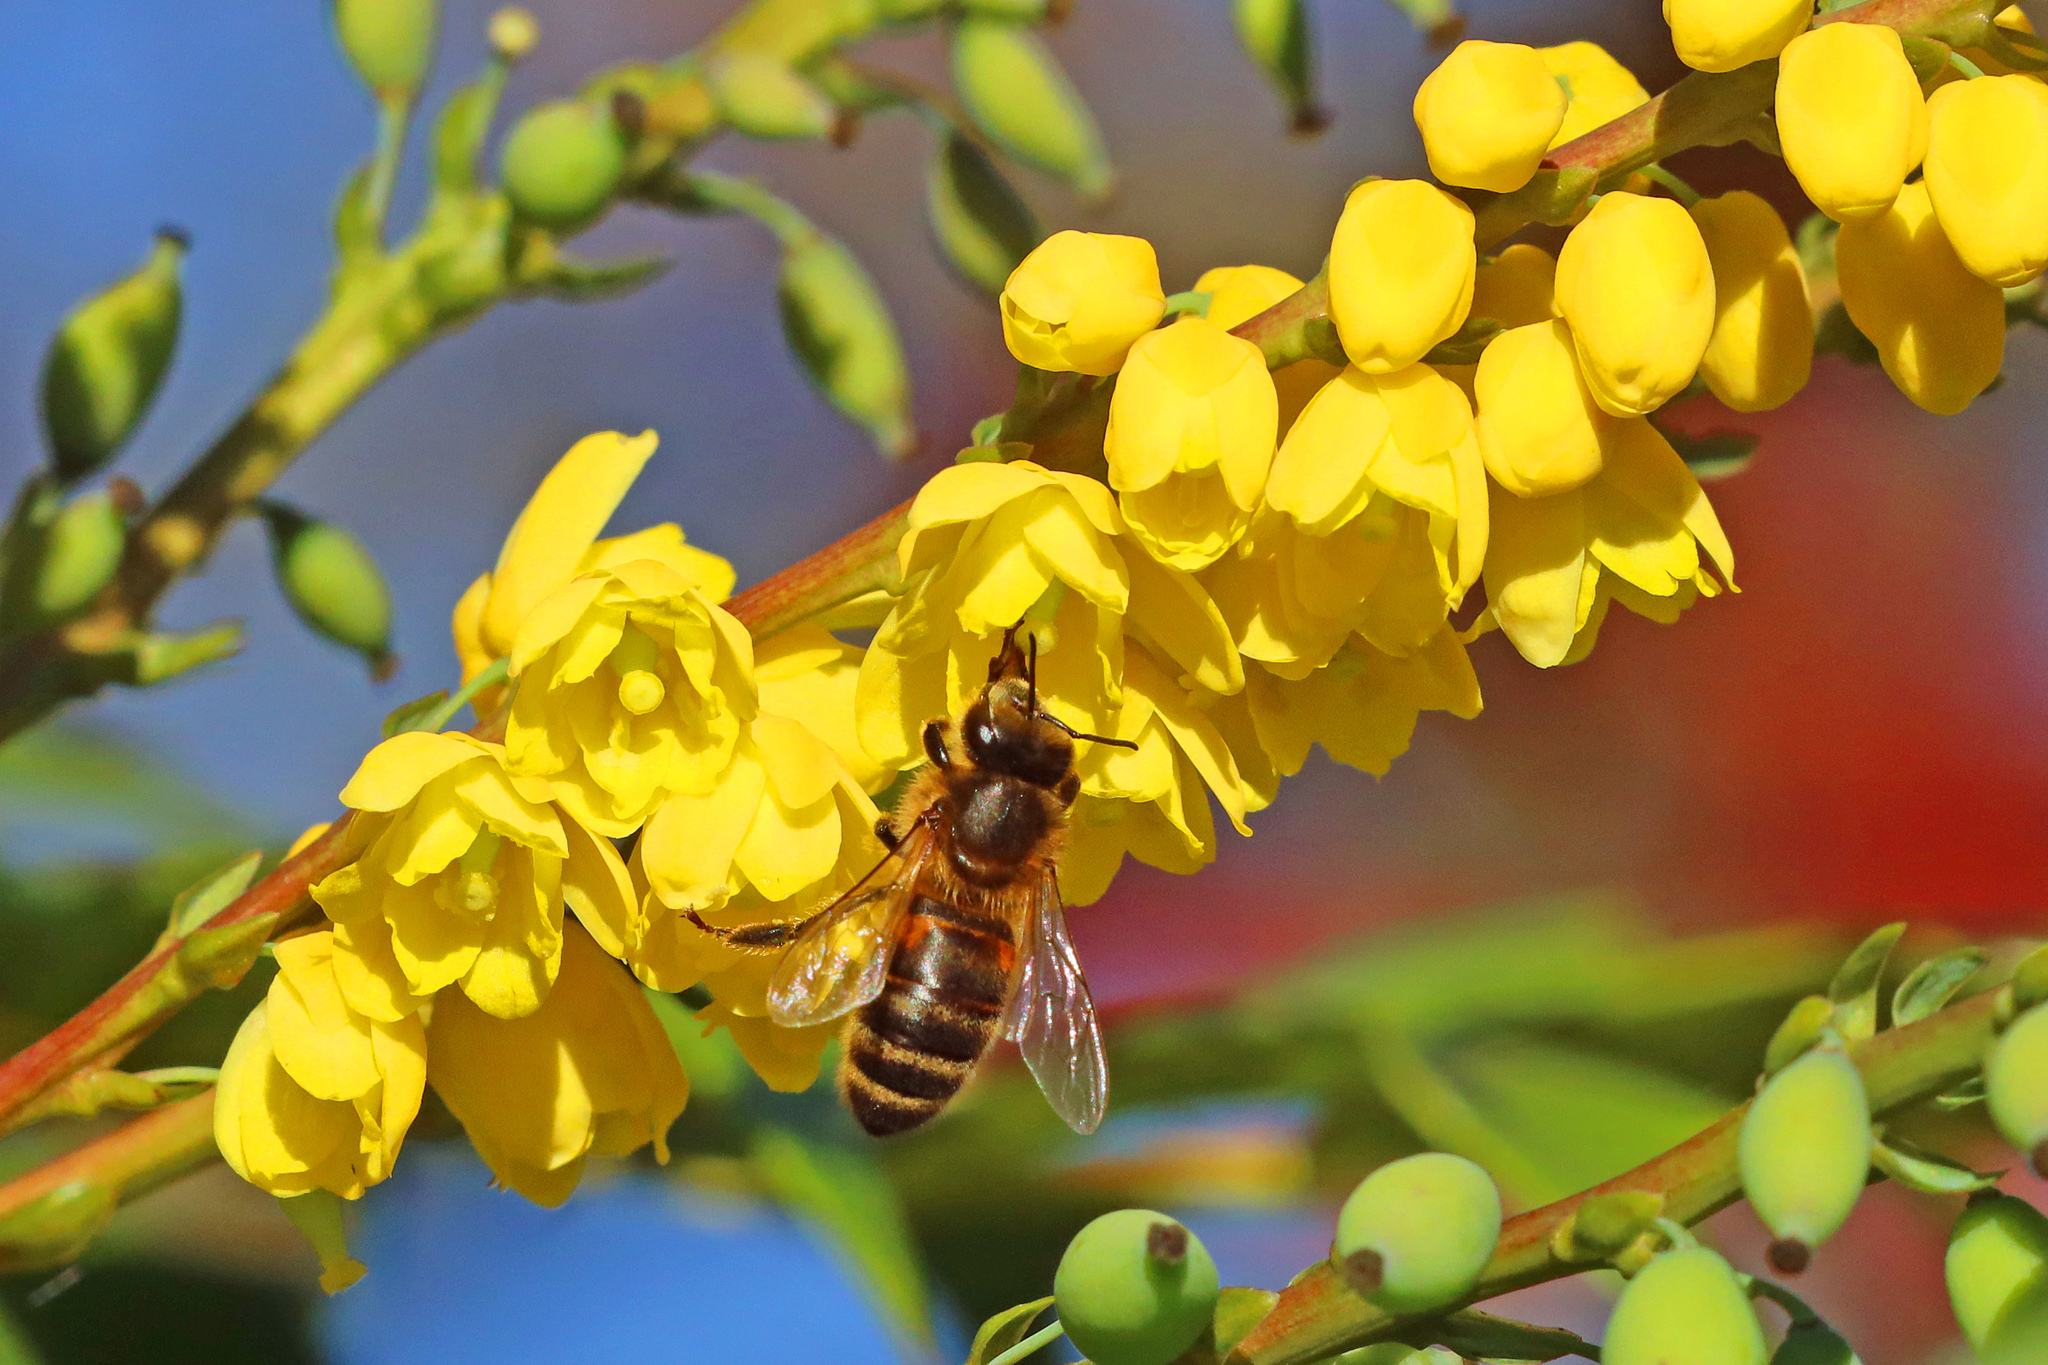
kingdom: Animalia
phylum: Arthropoda
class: Insecta
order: Hymenoptera
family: Apidae
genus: Apis
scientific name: Apis mellifera
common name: Honey bee
